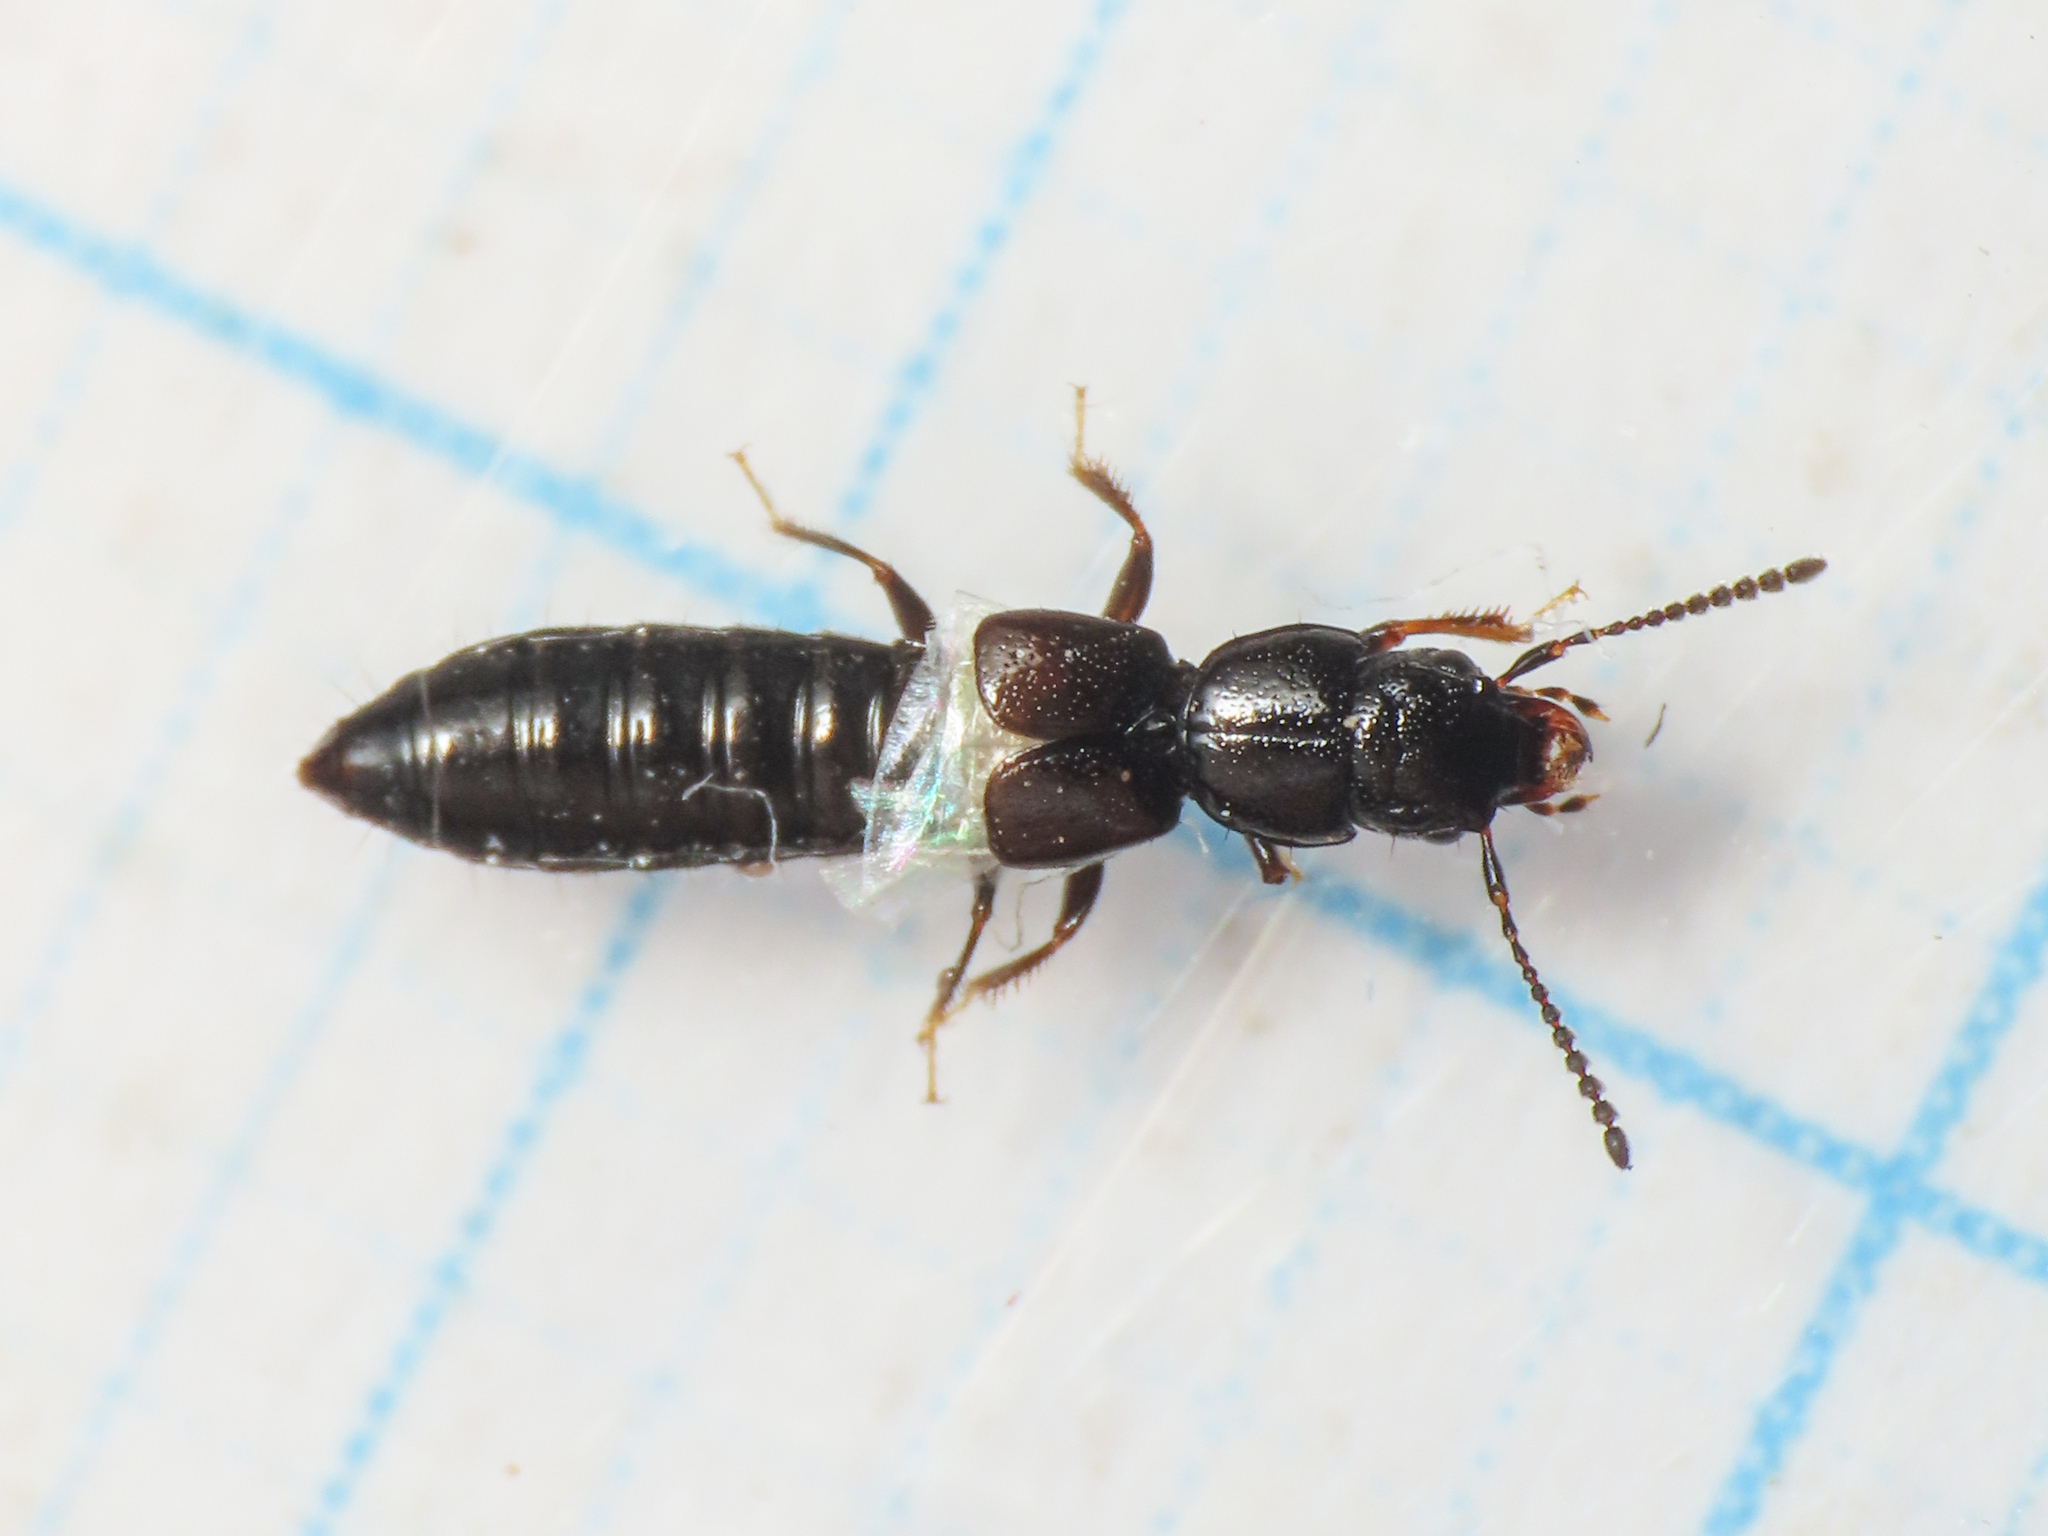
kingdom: Animalia
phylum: Arthropoda
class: Insecta
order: Coleoptera
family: Staphylinidae
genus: Platystethus
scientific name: Platystethus spinosus
